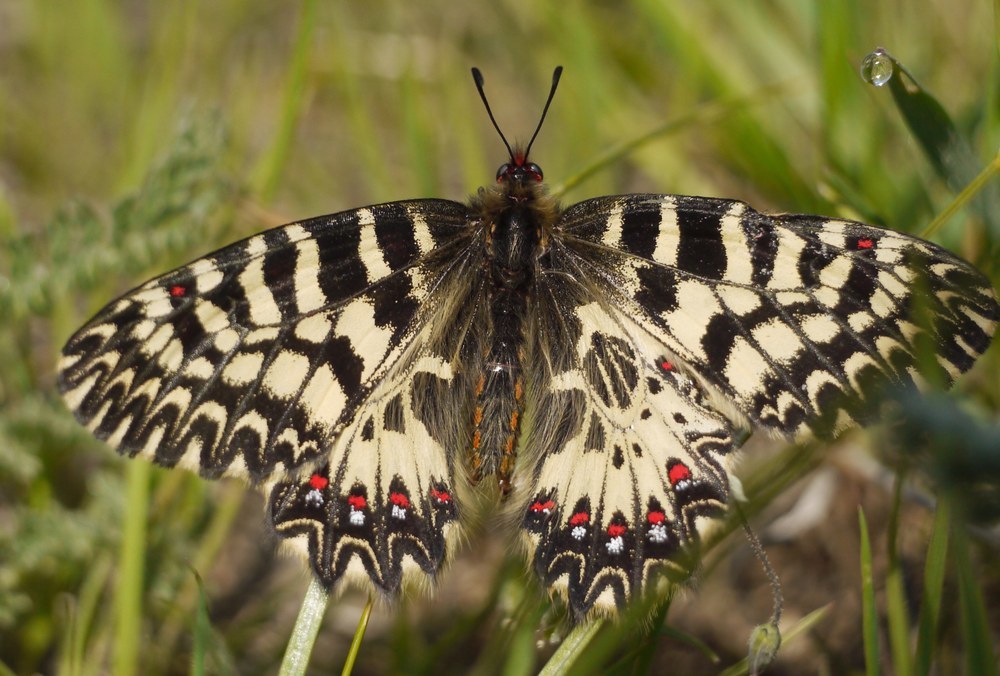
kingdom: Animalia
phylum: Arthropoda
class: Insecta
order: Lepidoptera
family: Papilionidae
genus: Zerynthia
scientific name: Zerynthia polyxena
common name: Southern festoon
